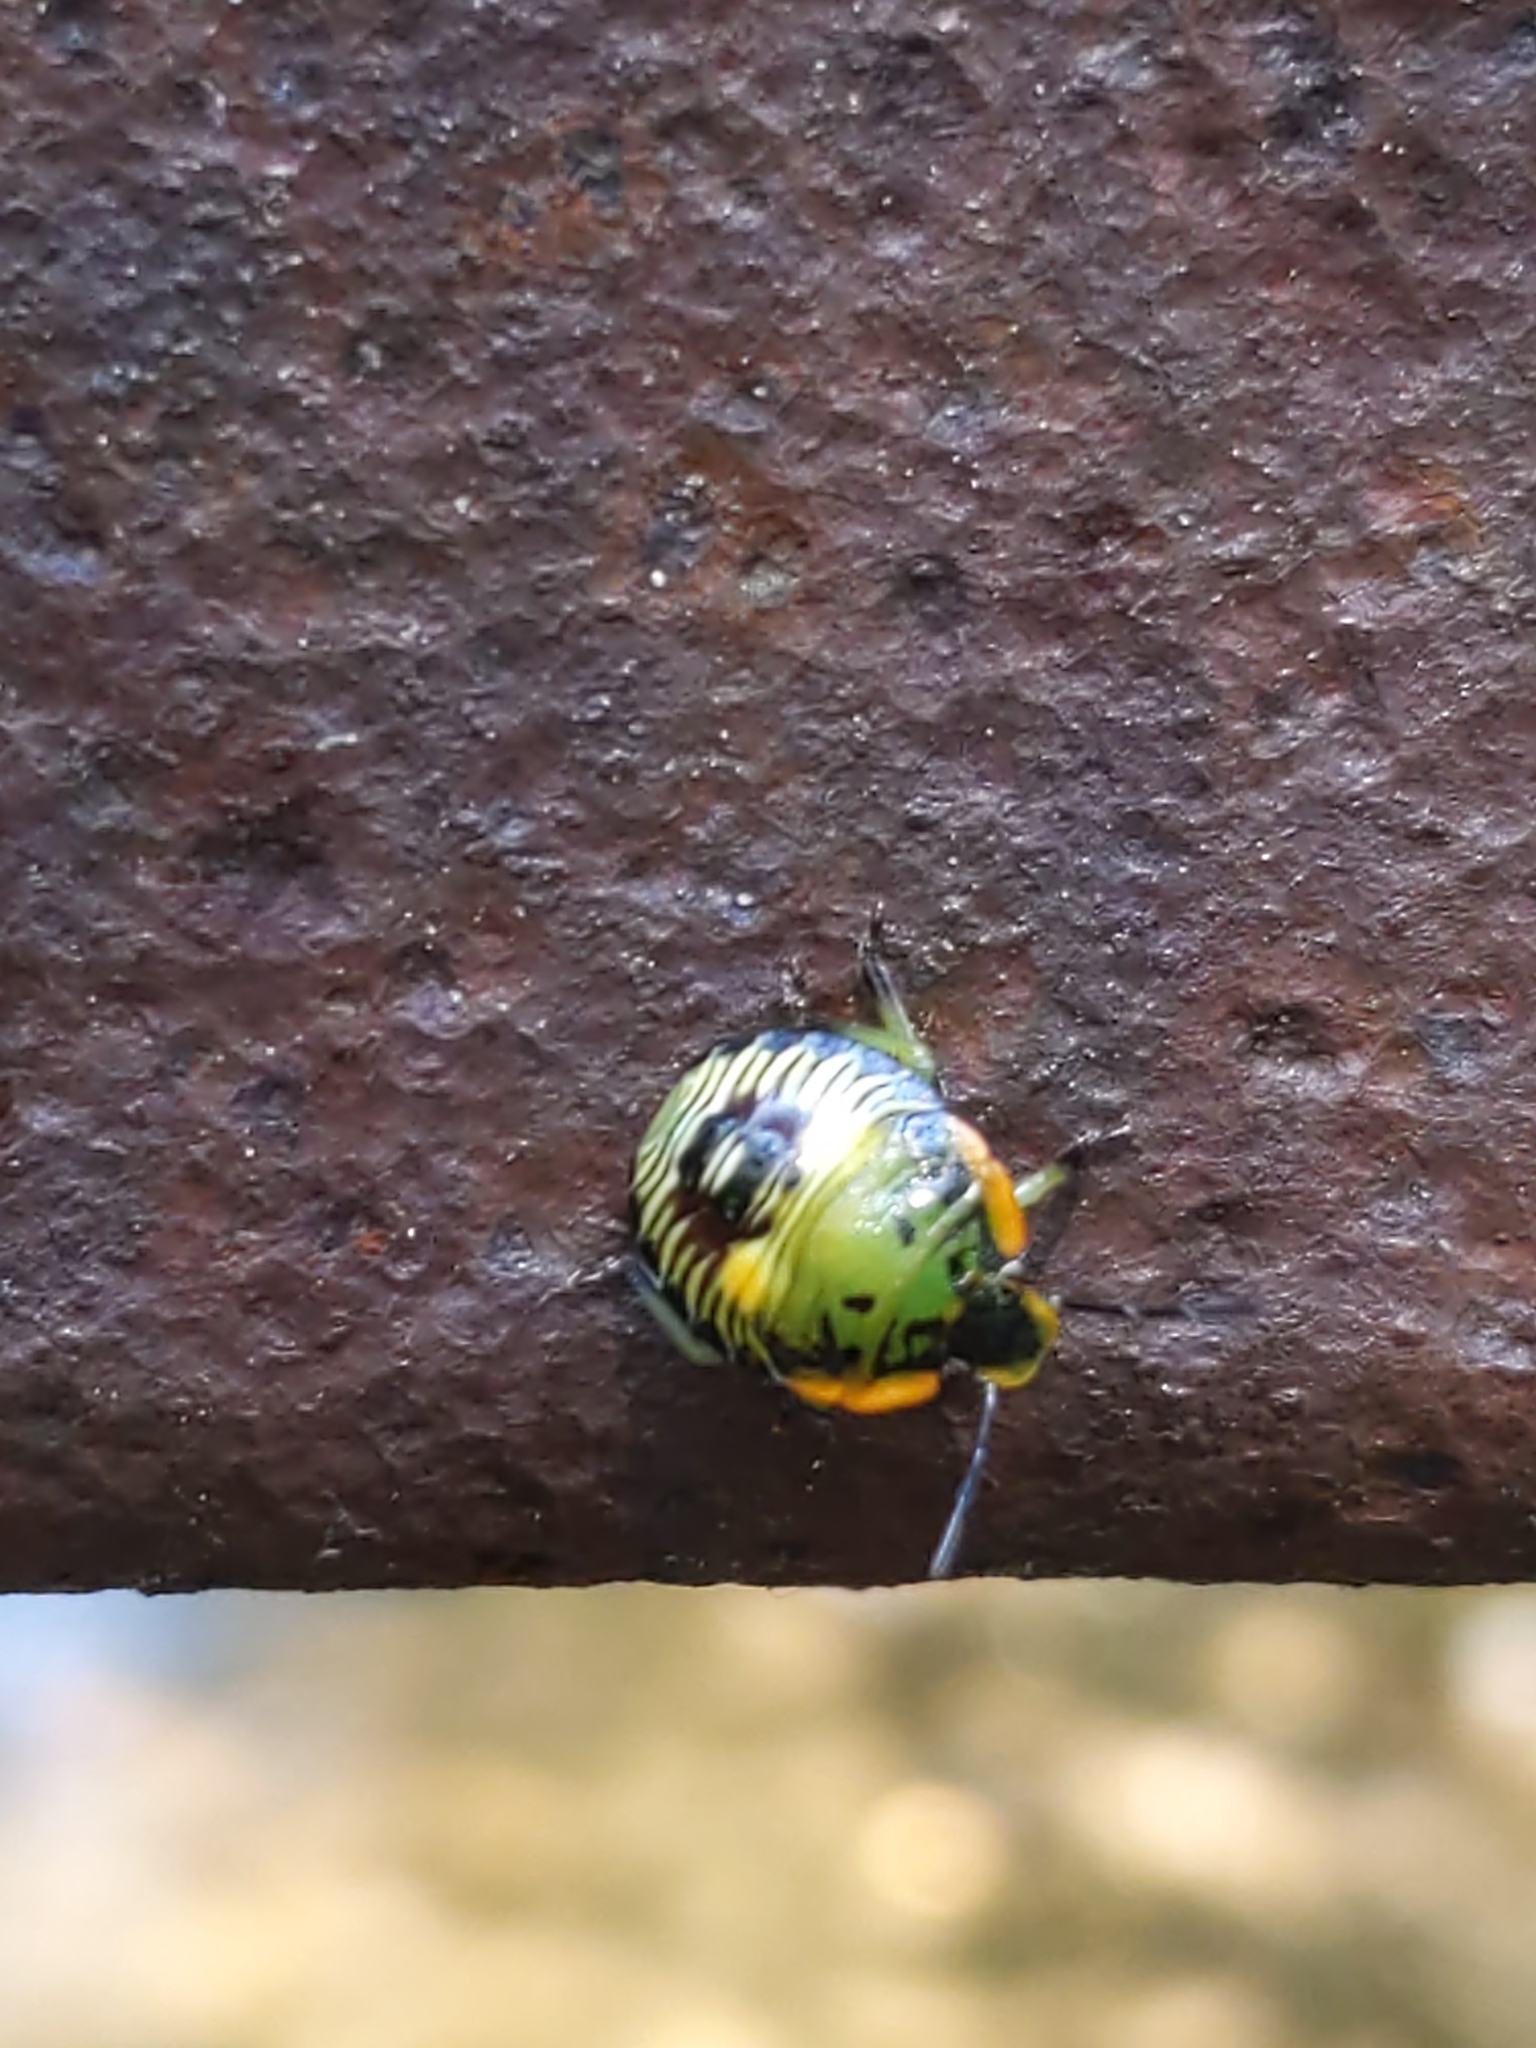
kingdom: Animalia
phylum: Arthropoda
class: Insecta
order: Hemiptera
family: Pentatomidae
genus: Chinavia
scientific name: Chinavia hilaris
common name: Green stink bug
